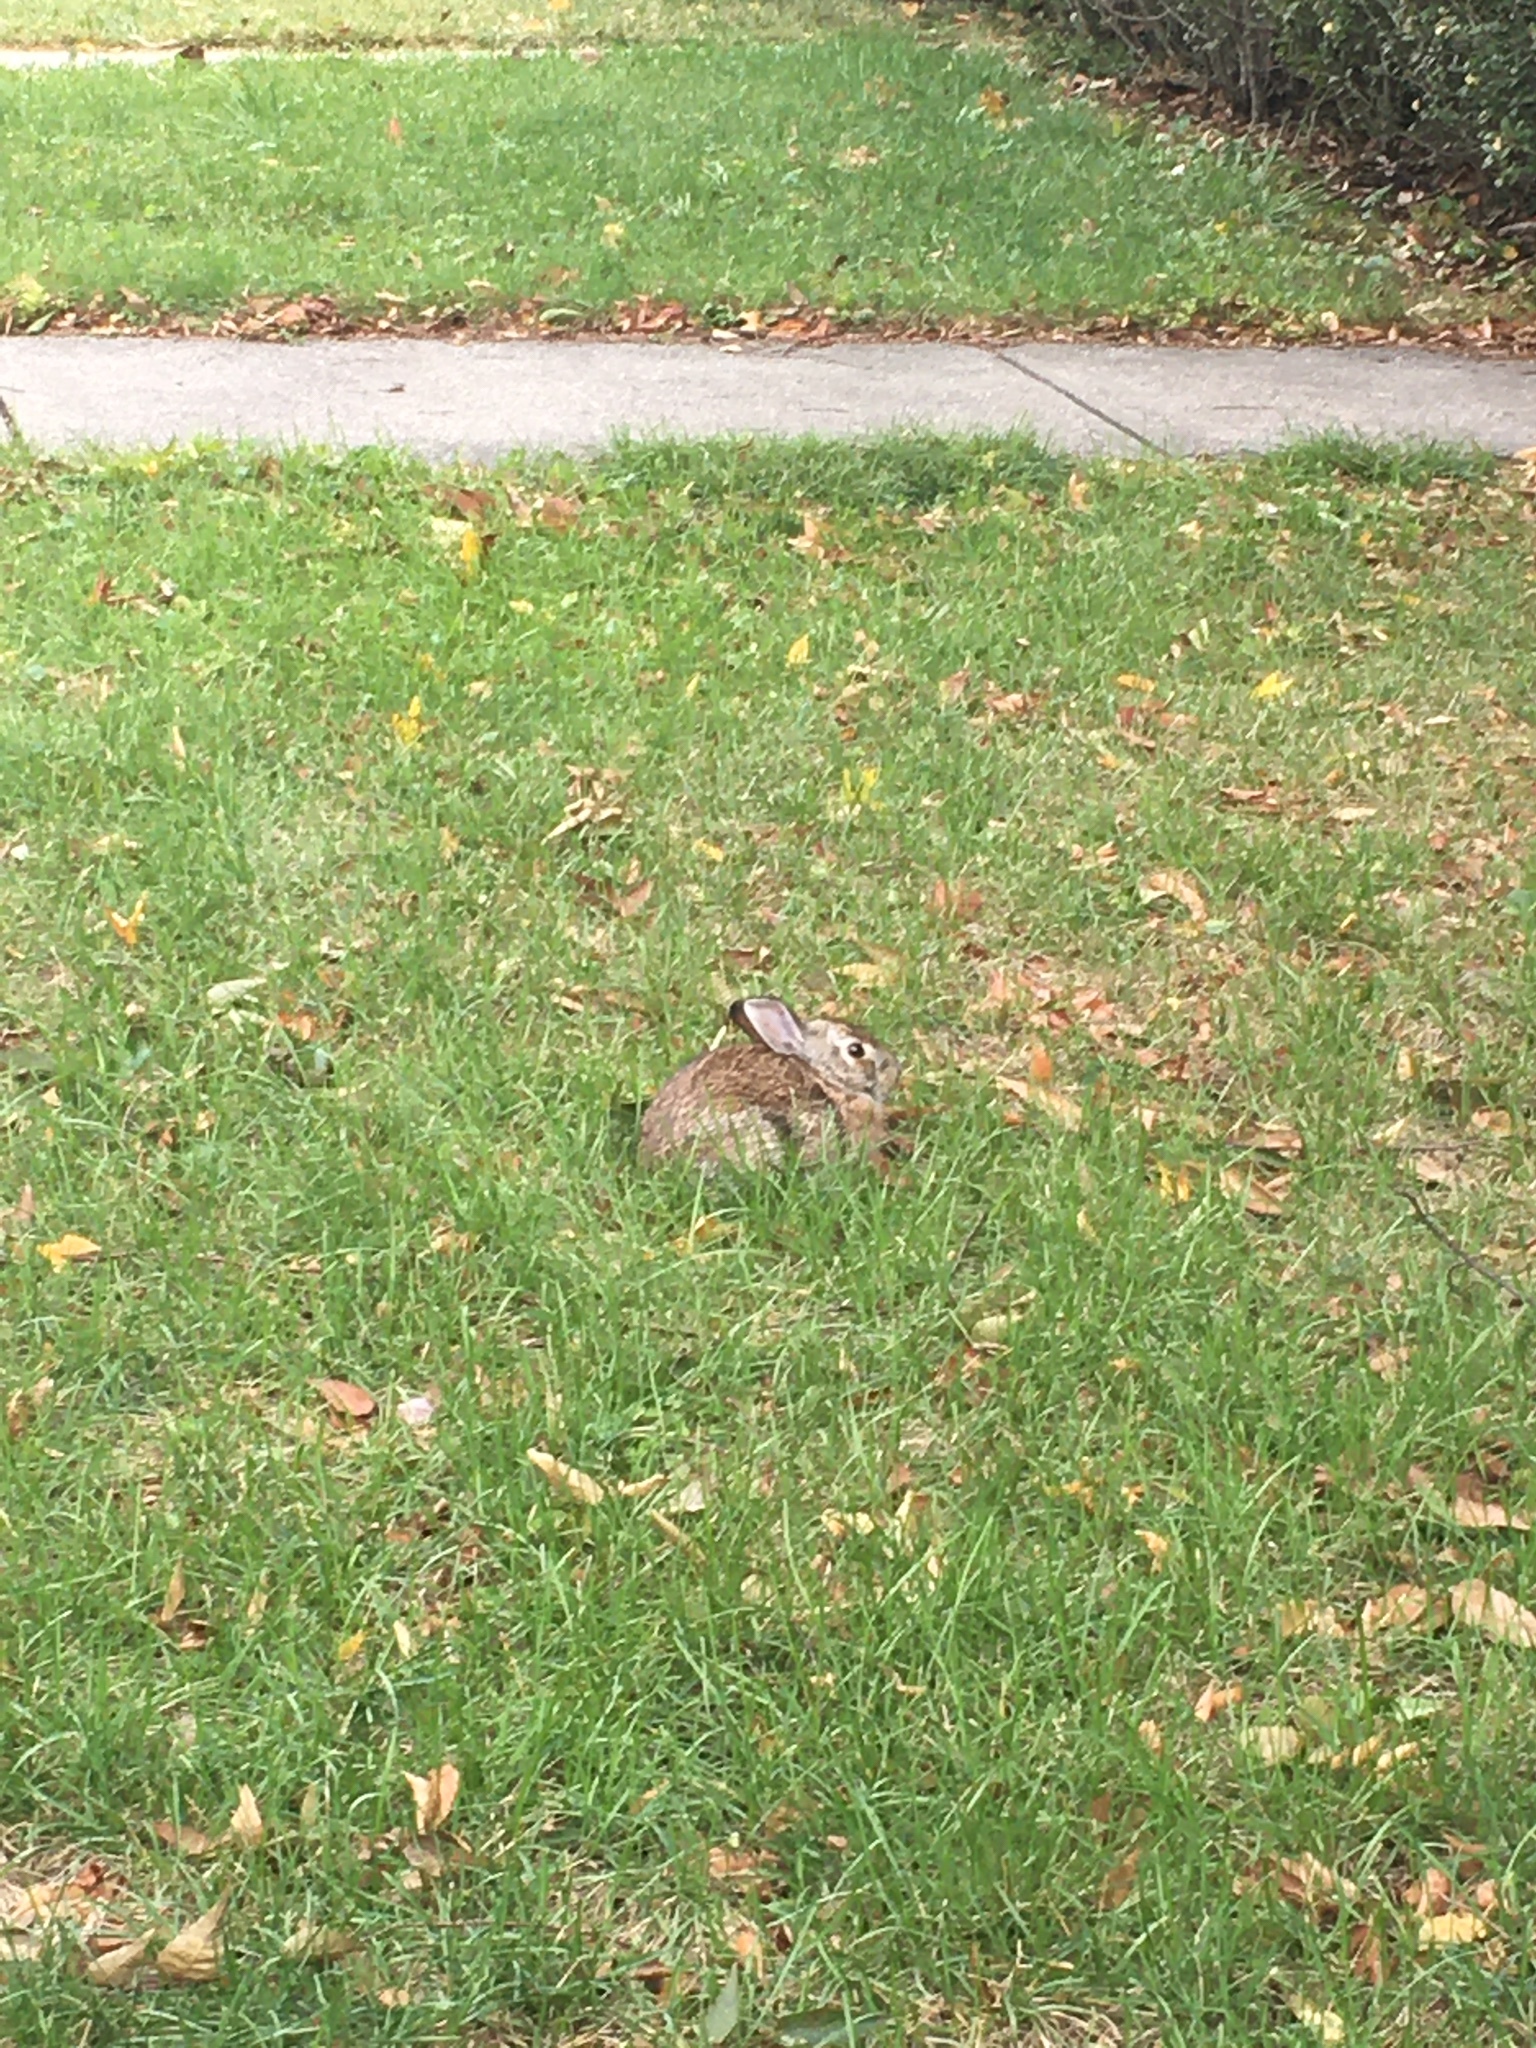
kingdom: Animalia
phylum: Chordata
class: Mammalia
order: Lagomorpha
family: Leporidae
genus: Sylvilagus
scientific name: Sylvilagus floridanus
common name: Eastern cottontail
